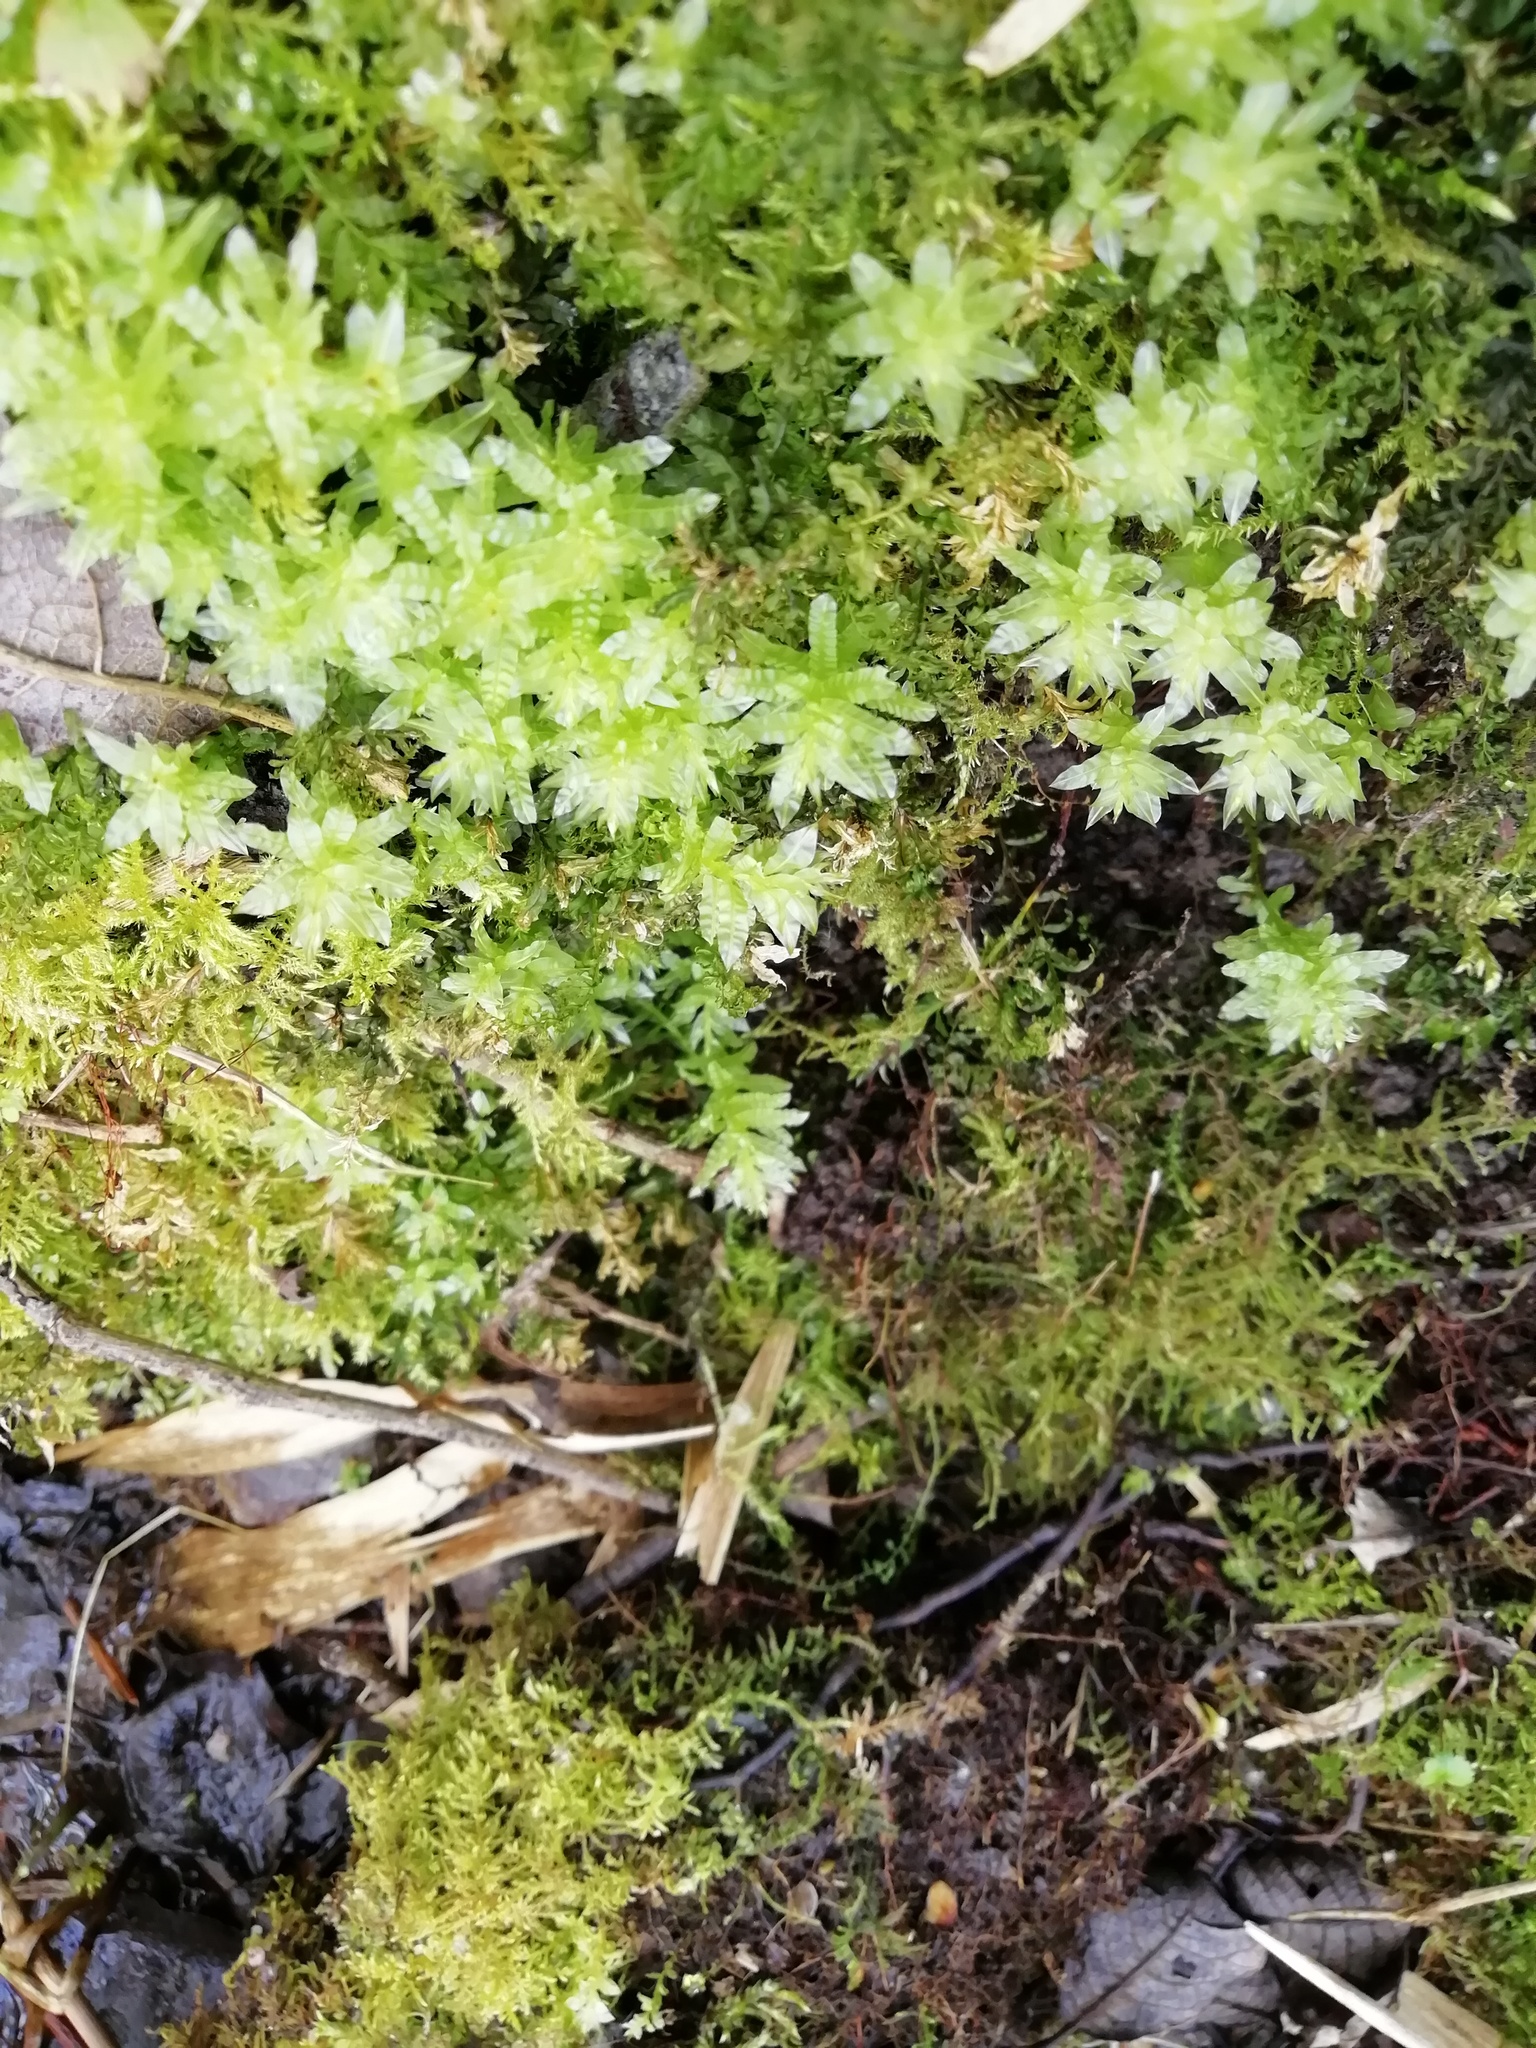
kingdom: Plantae
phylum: Bryophyta
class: Bryopsida
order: Bryales
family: Mniaceae
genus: Plagiomnium
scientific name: Plagiomnium undulatum
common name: Hart's-tongue thyme-moss
